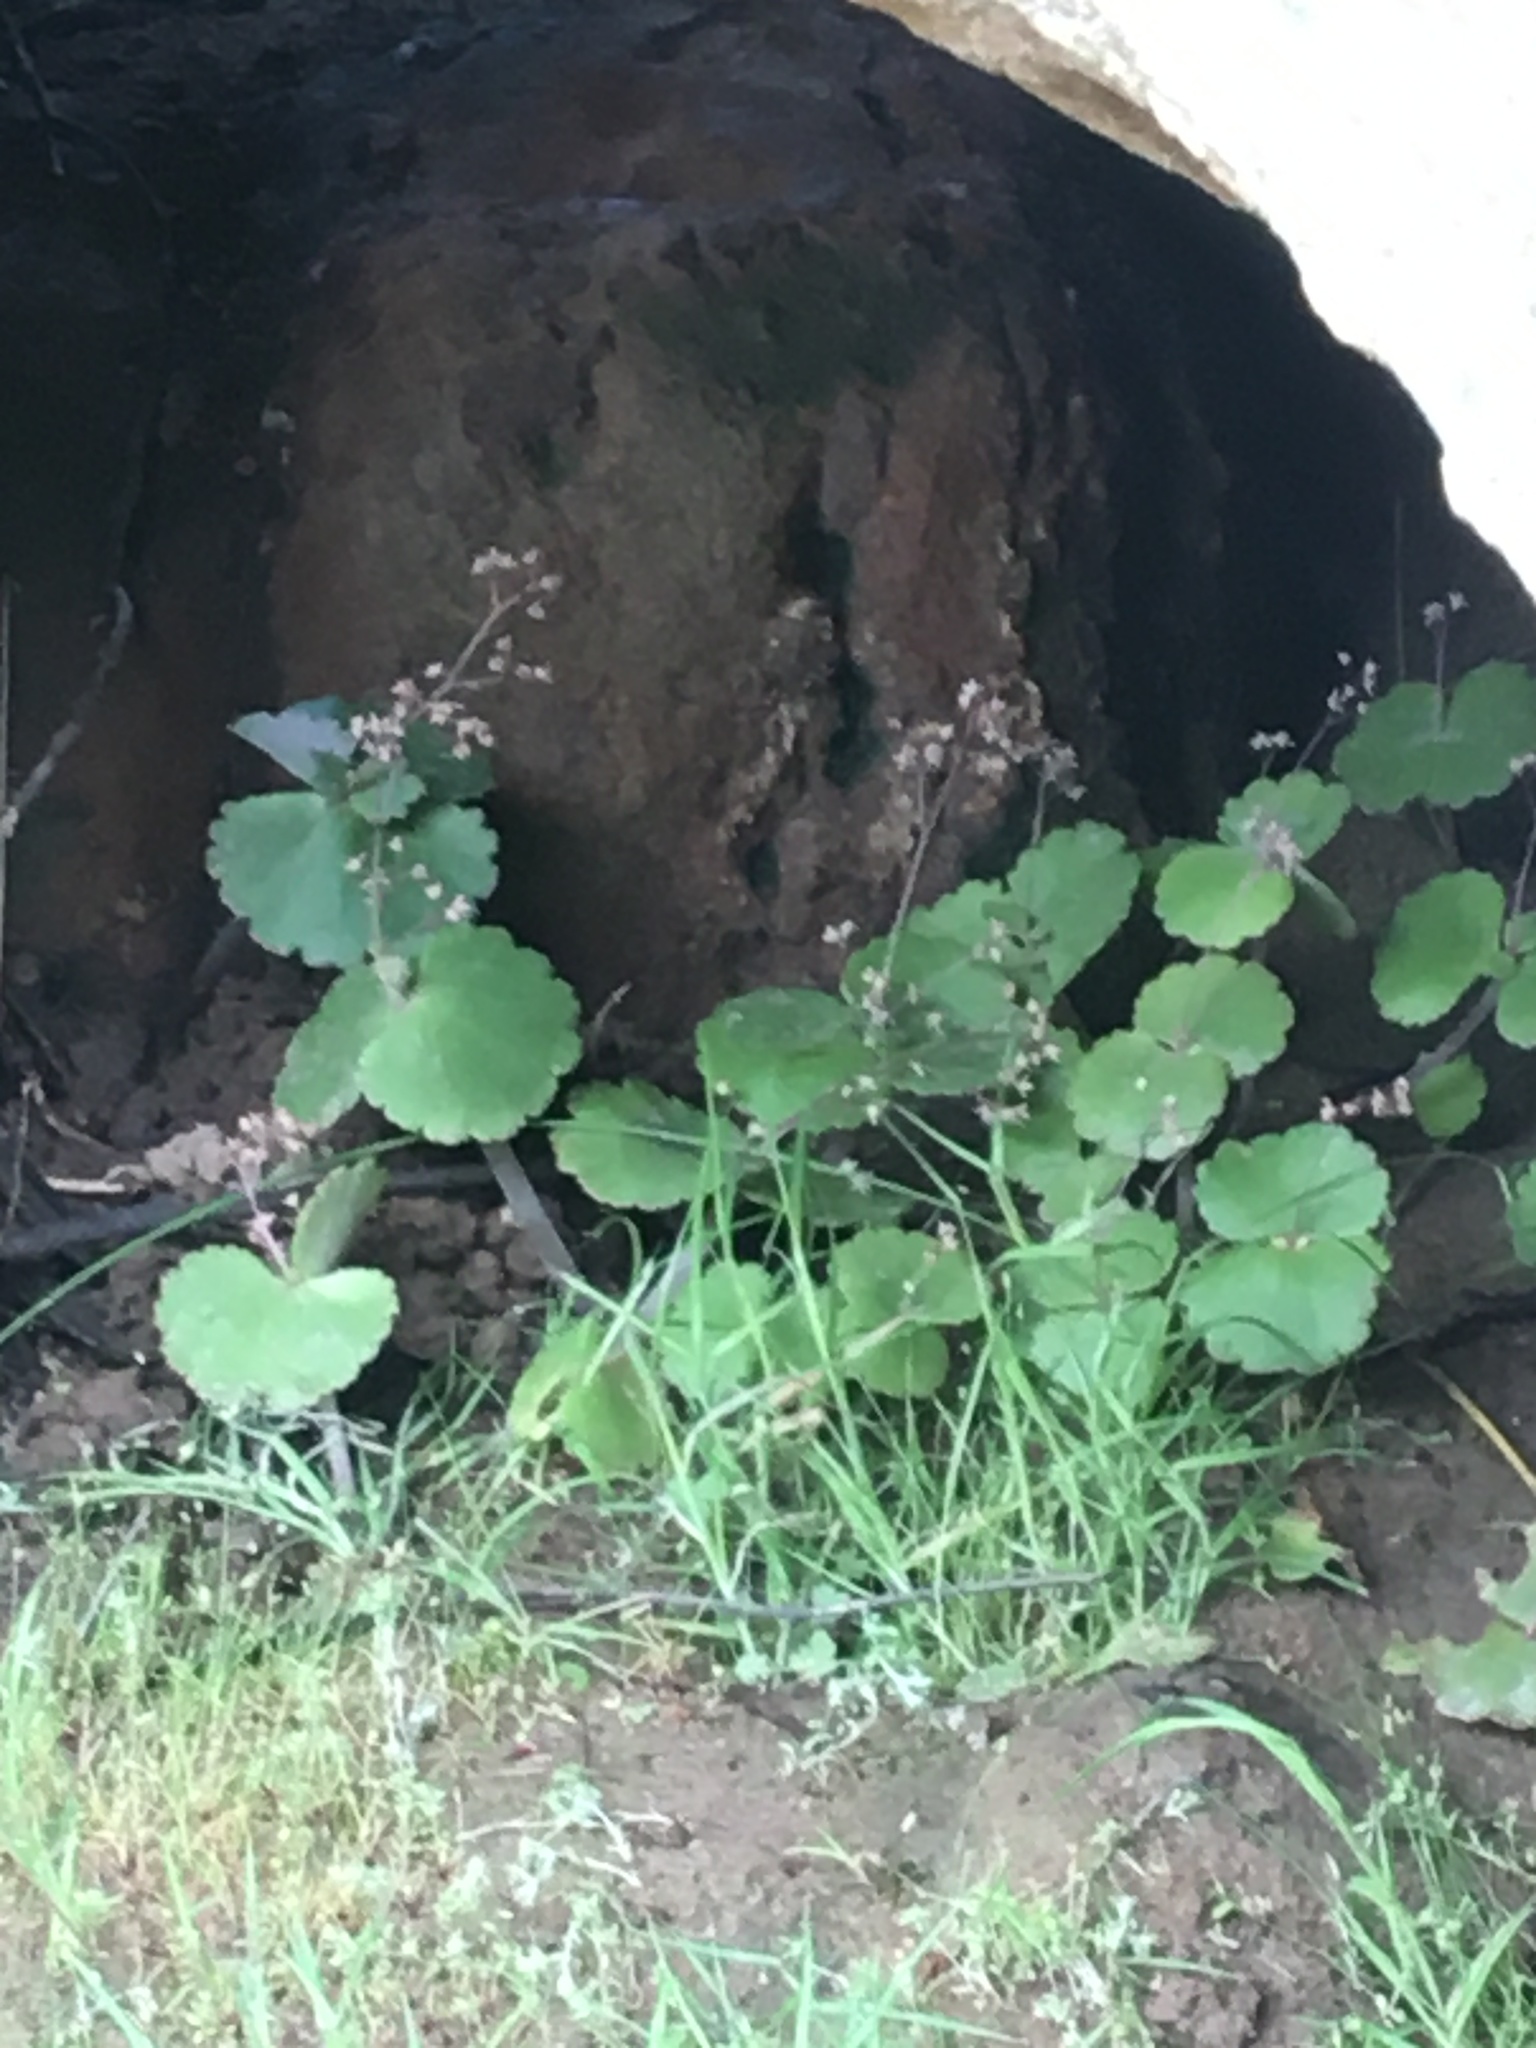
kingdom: Plantae
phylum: Tracheophyta
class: Magnoliopsida
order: Saxifragales
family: Crassulaceae
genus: Crassula
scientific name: Crassula umbella
